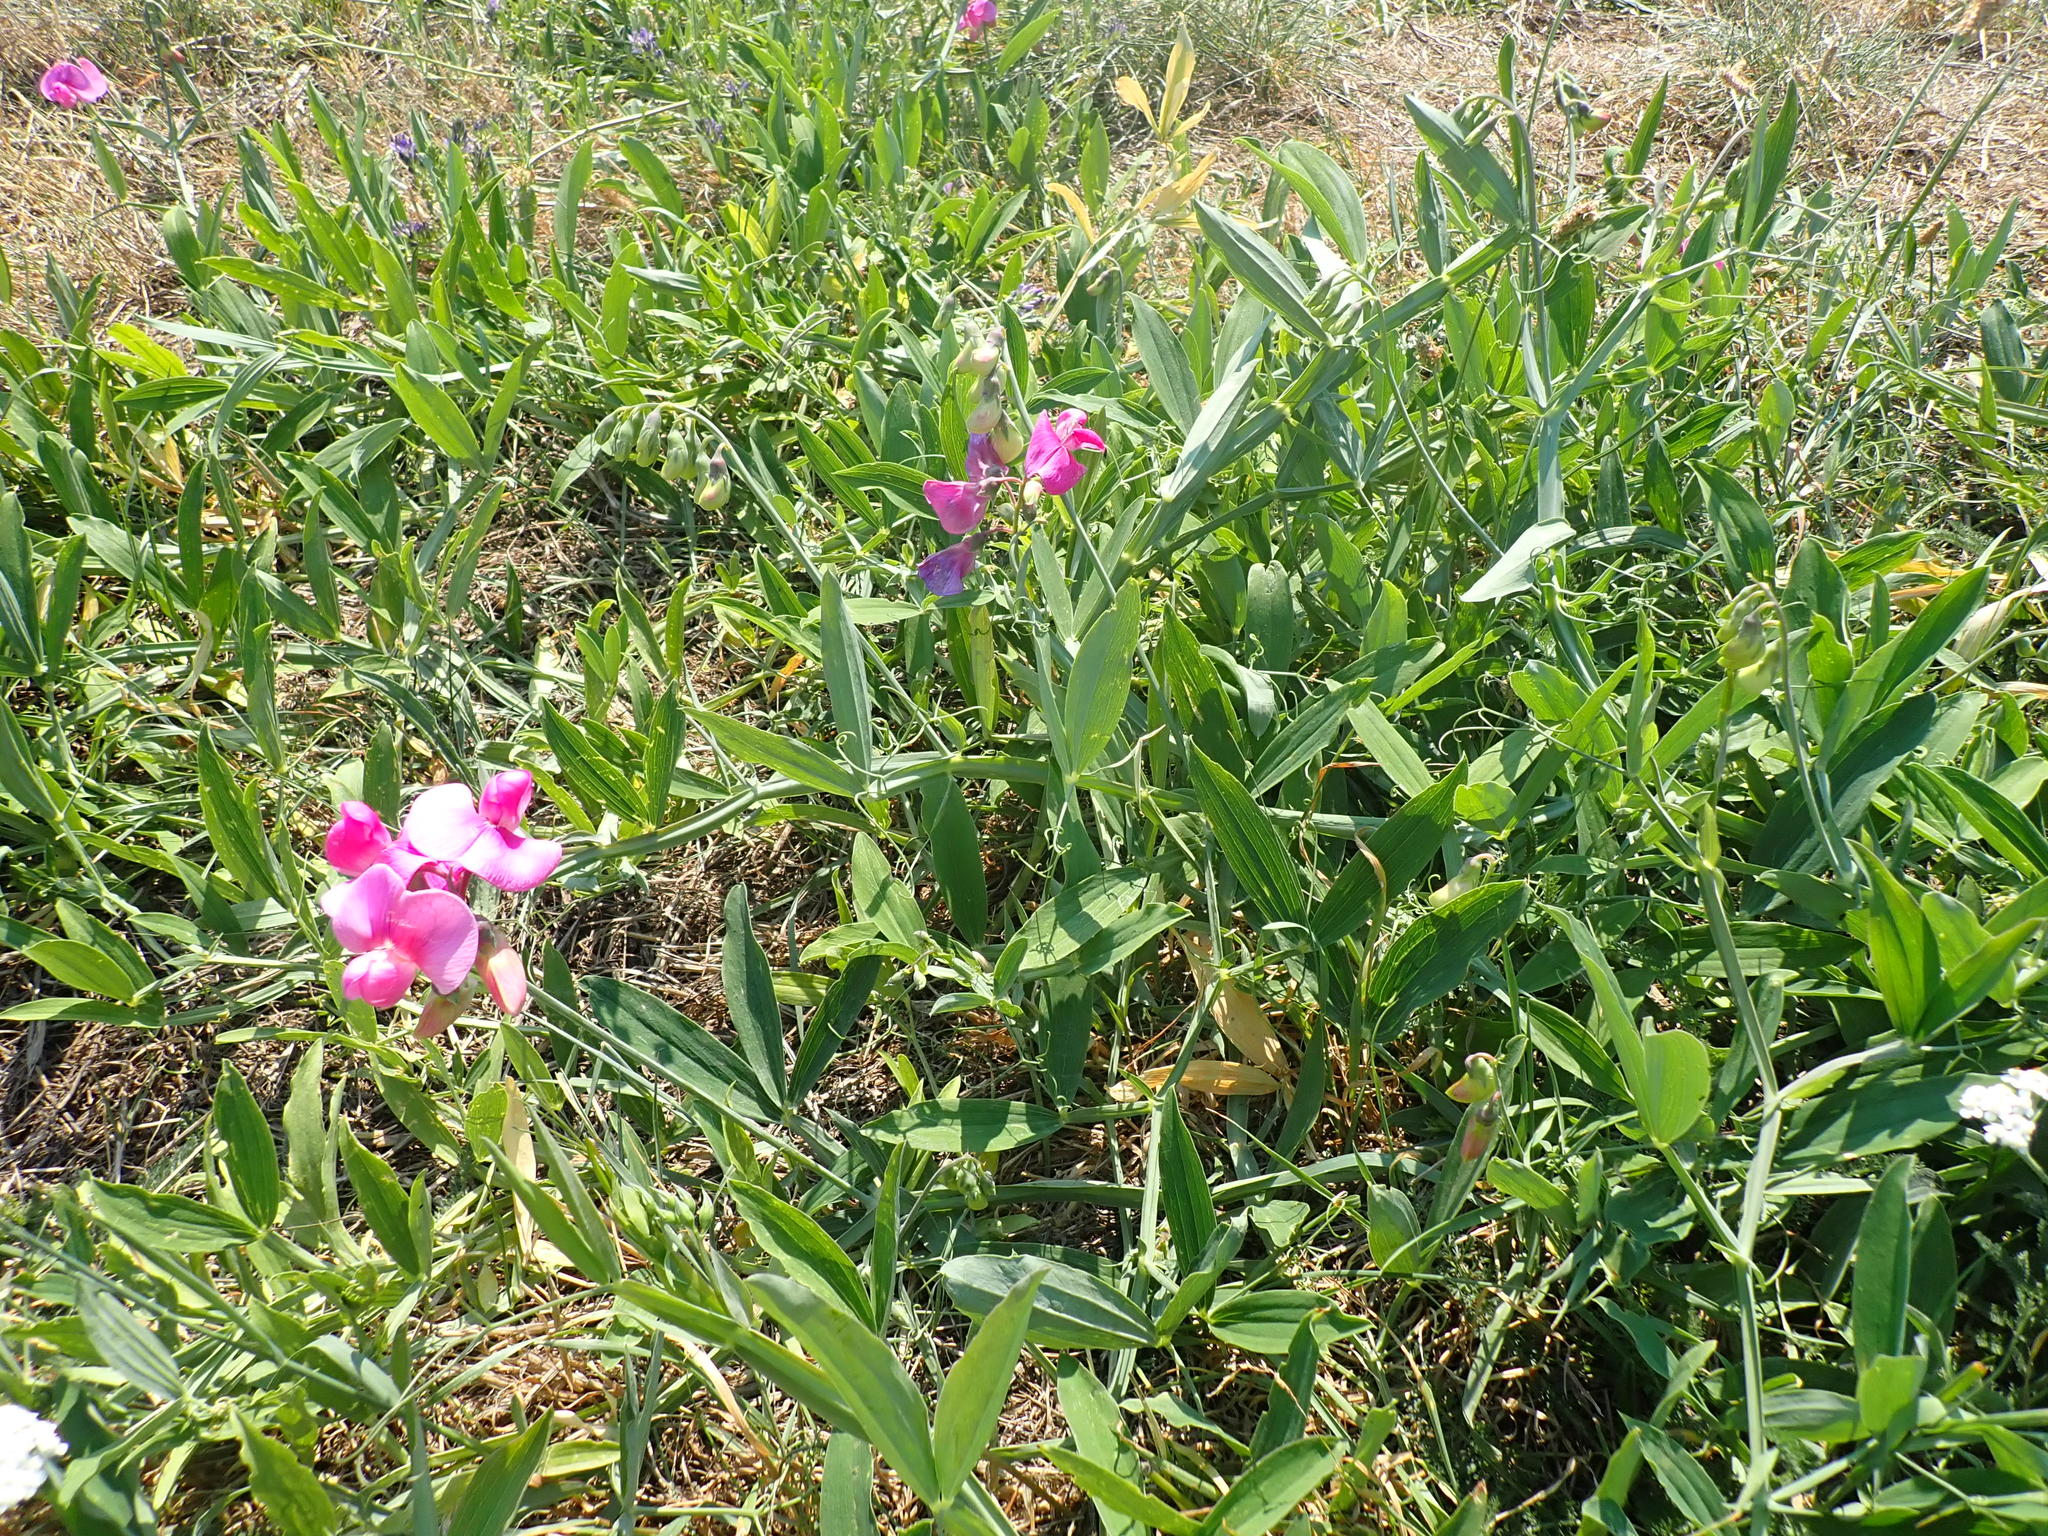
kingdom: Plantae
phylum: Tracheophyta
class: Magnoliopsida
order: Fabales
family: Fabaceae
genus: Lathyrus
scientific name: Lathyrus latifolius
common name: Perennial pea
